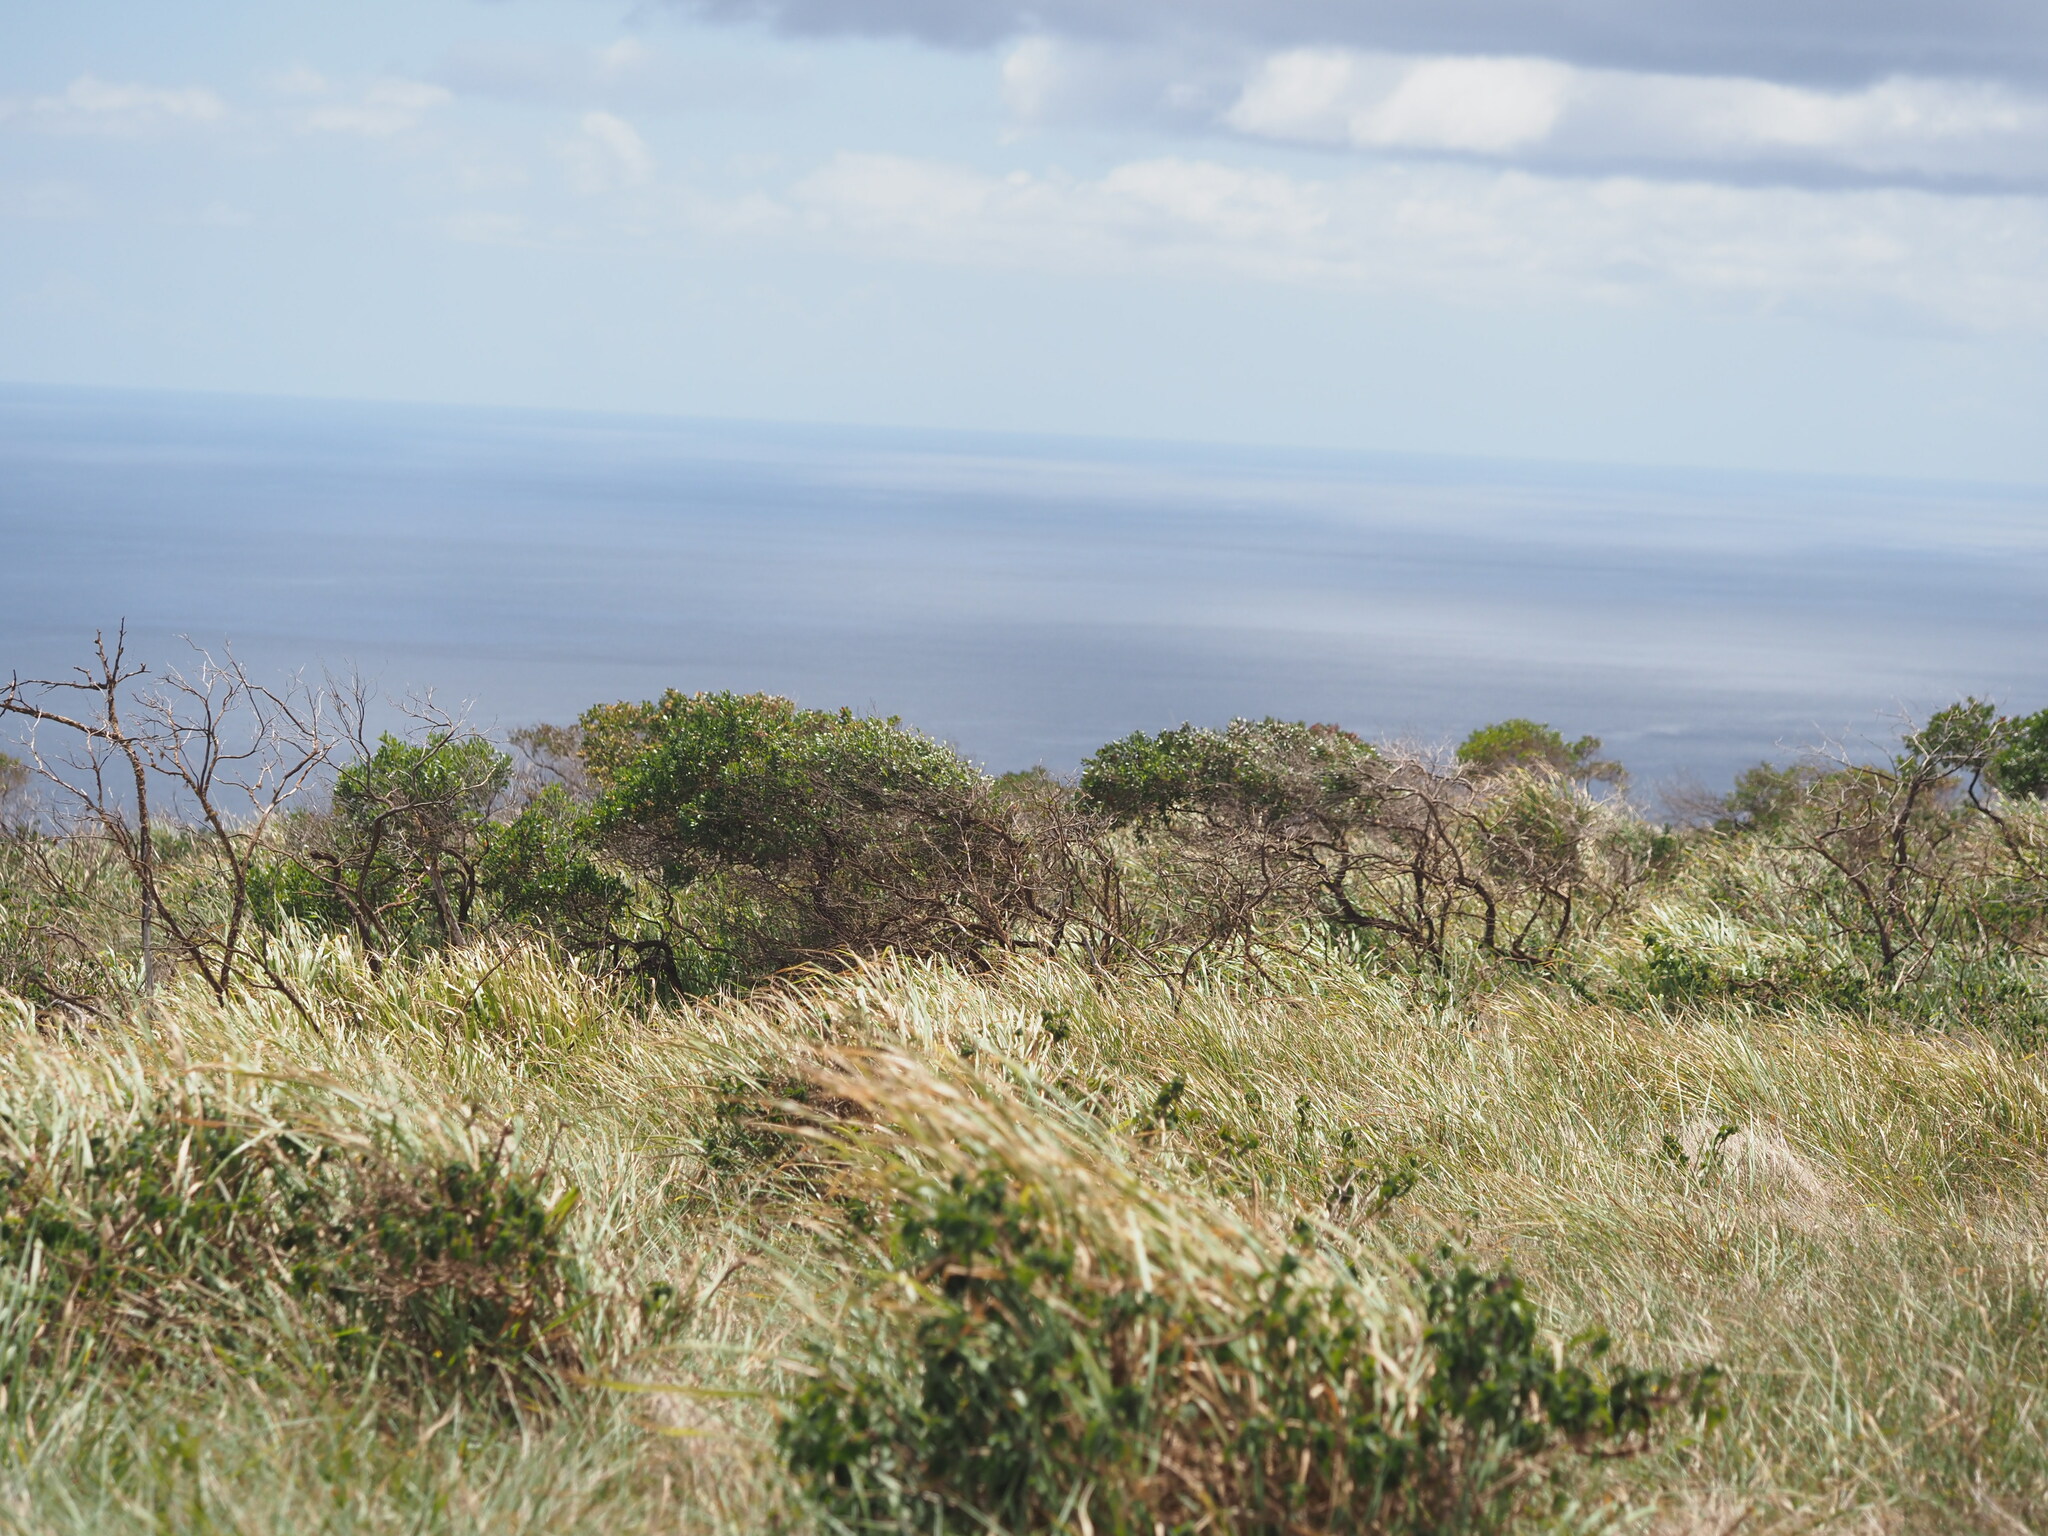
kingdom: Plantae
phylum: Tracheophyta
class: Magnoliopsida
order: Sapindales
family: Sapindaceae
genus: Dodonaea
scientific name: Dodonaea viscosa
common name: Hopbush
